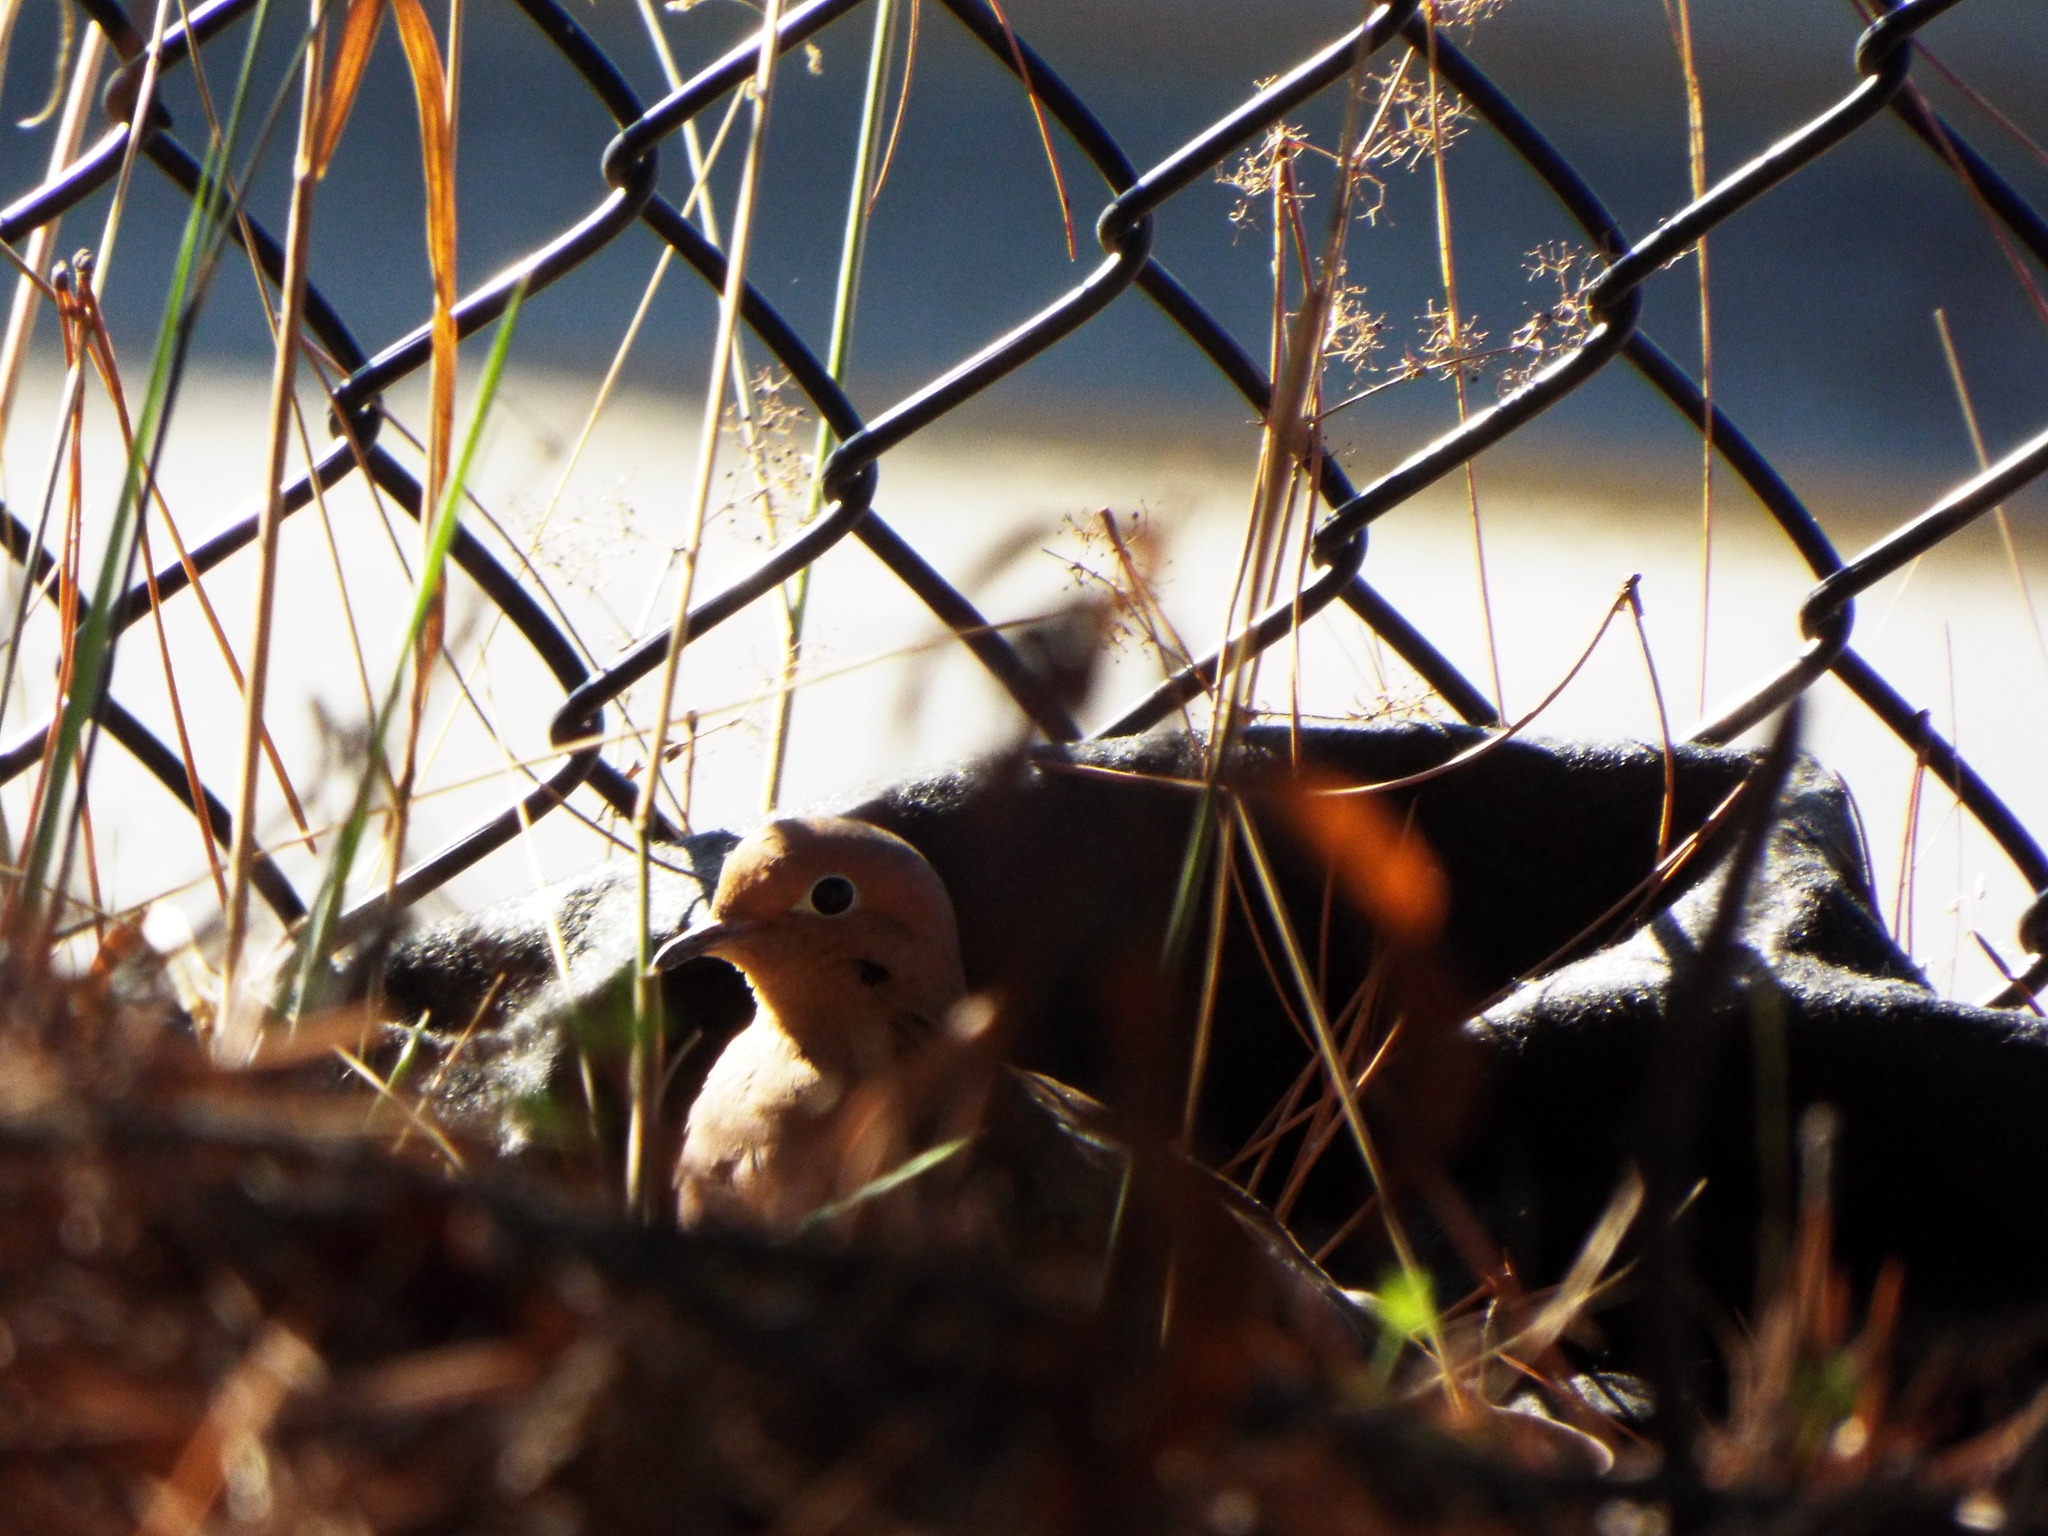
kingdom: Animalia
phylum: Chordata
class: Aves
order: Columbiformes
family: Columbidae
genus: Zenaida
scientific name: Zenaida macroura
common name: Mourning dove
